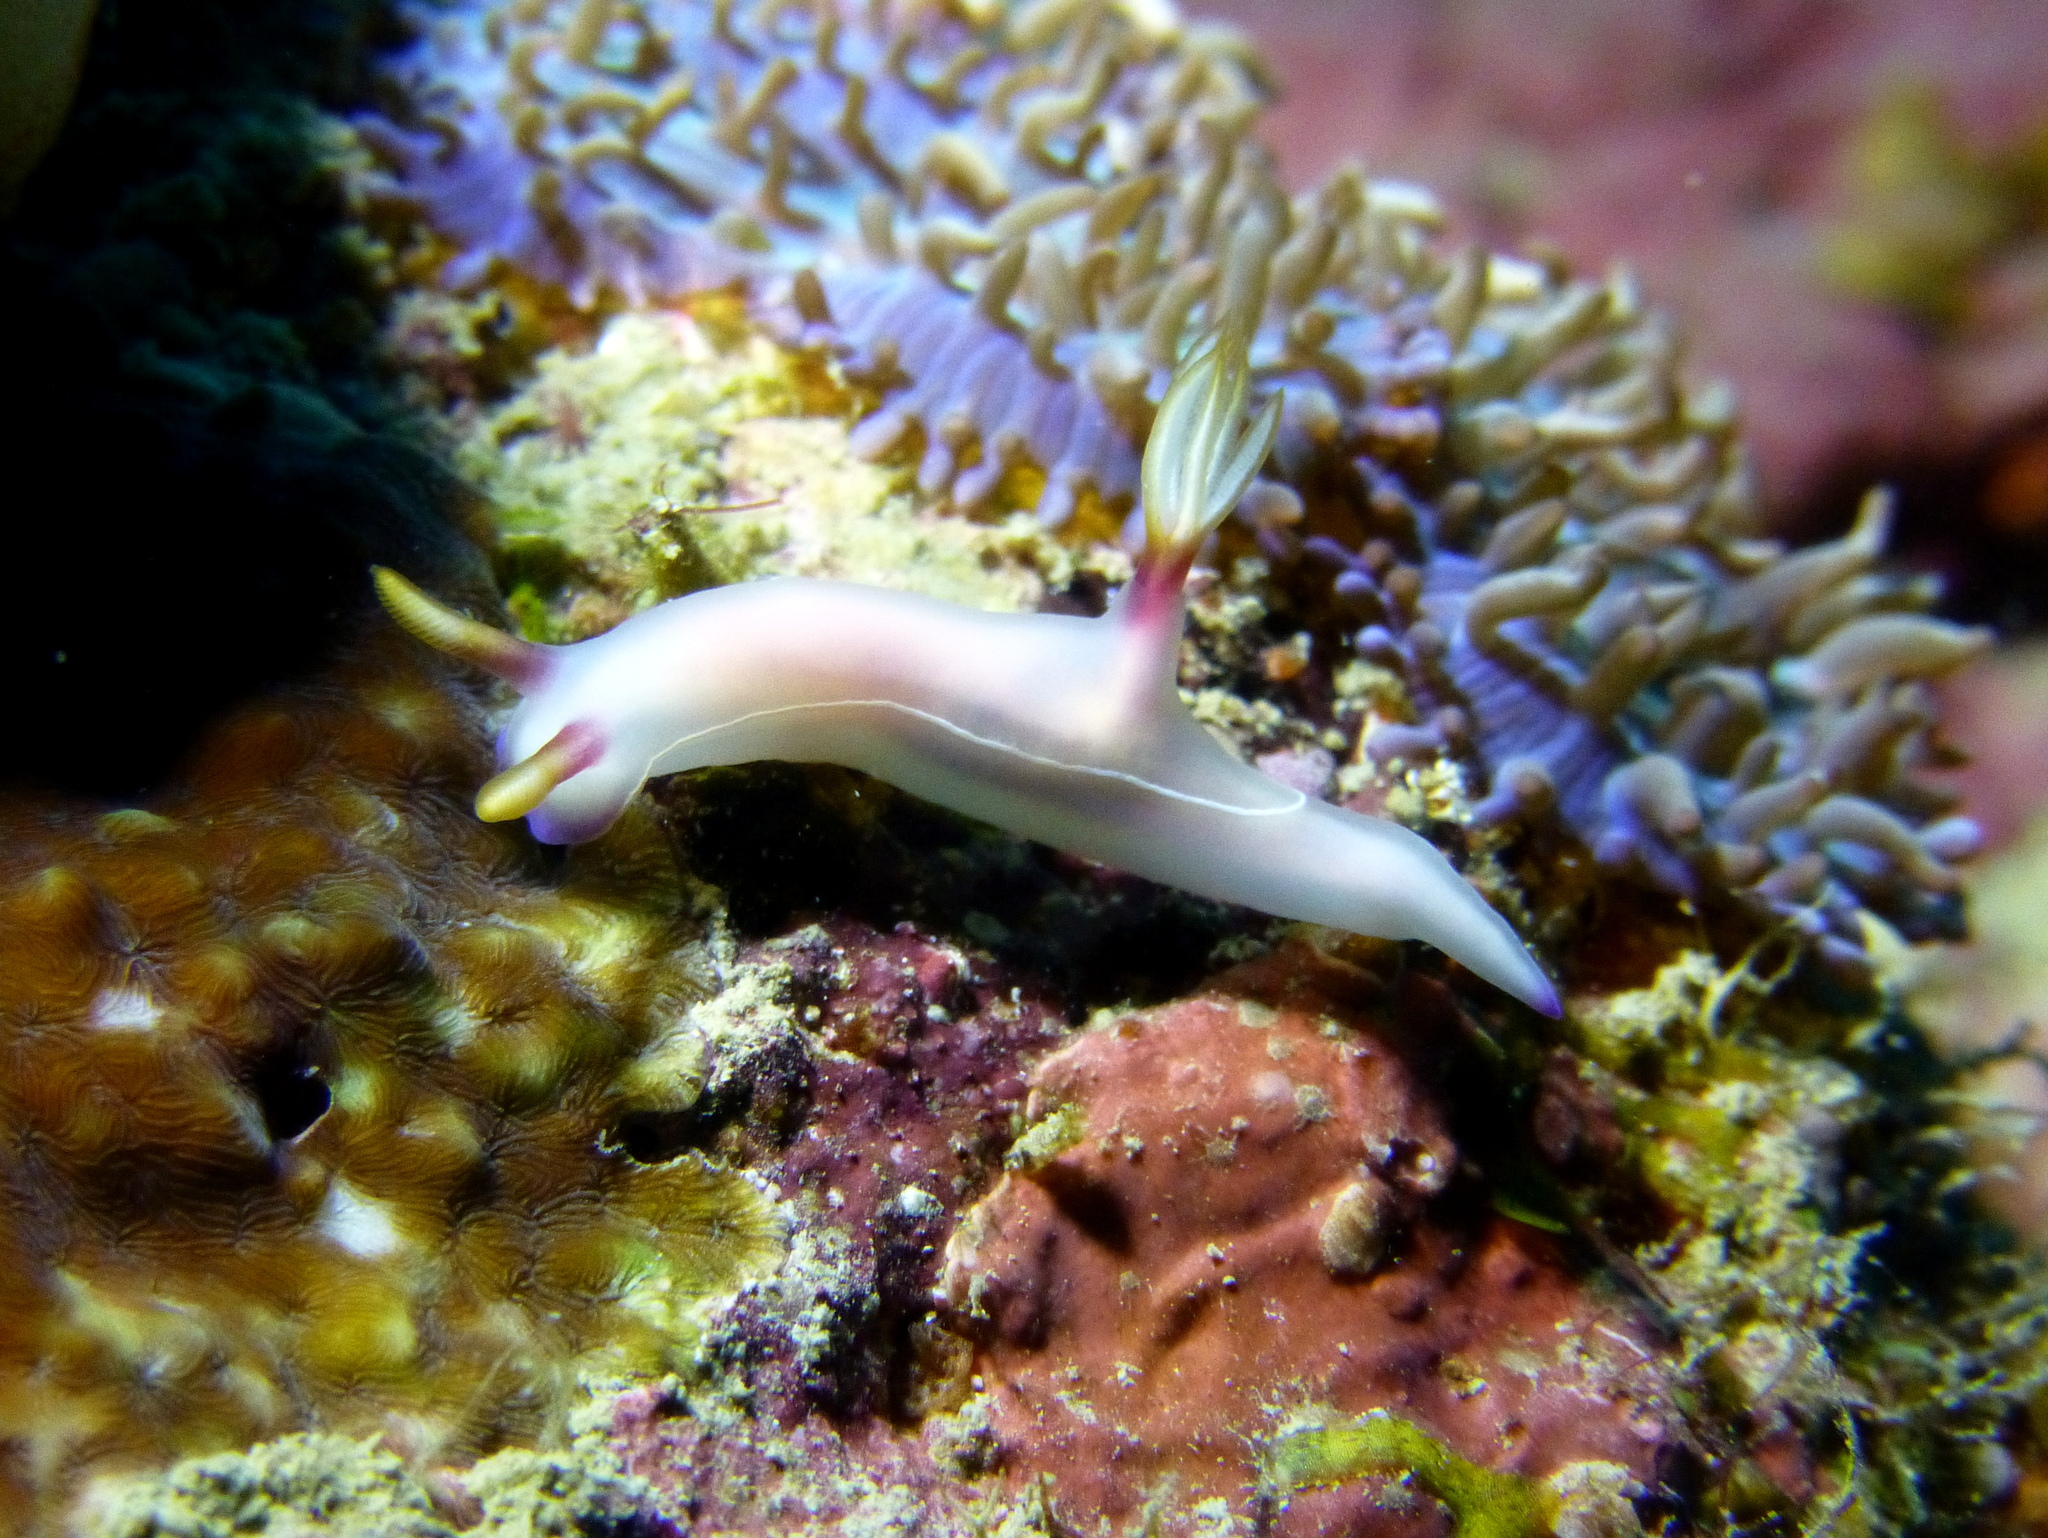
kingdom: Animalia
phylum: Mollusca
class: Gastropoda
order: Nudibranchia
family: Chromodorididae
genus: Hypselodoris
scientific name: Hypselodoris bullockii
